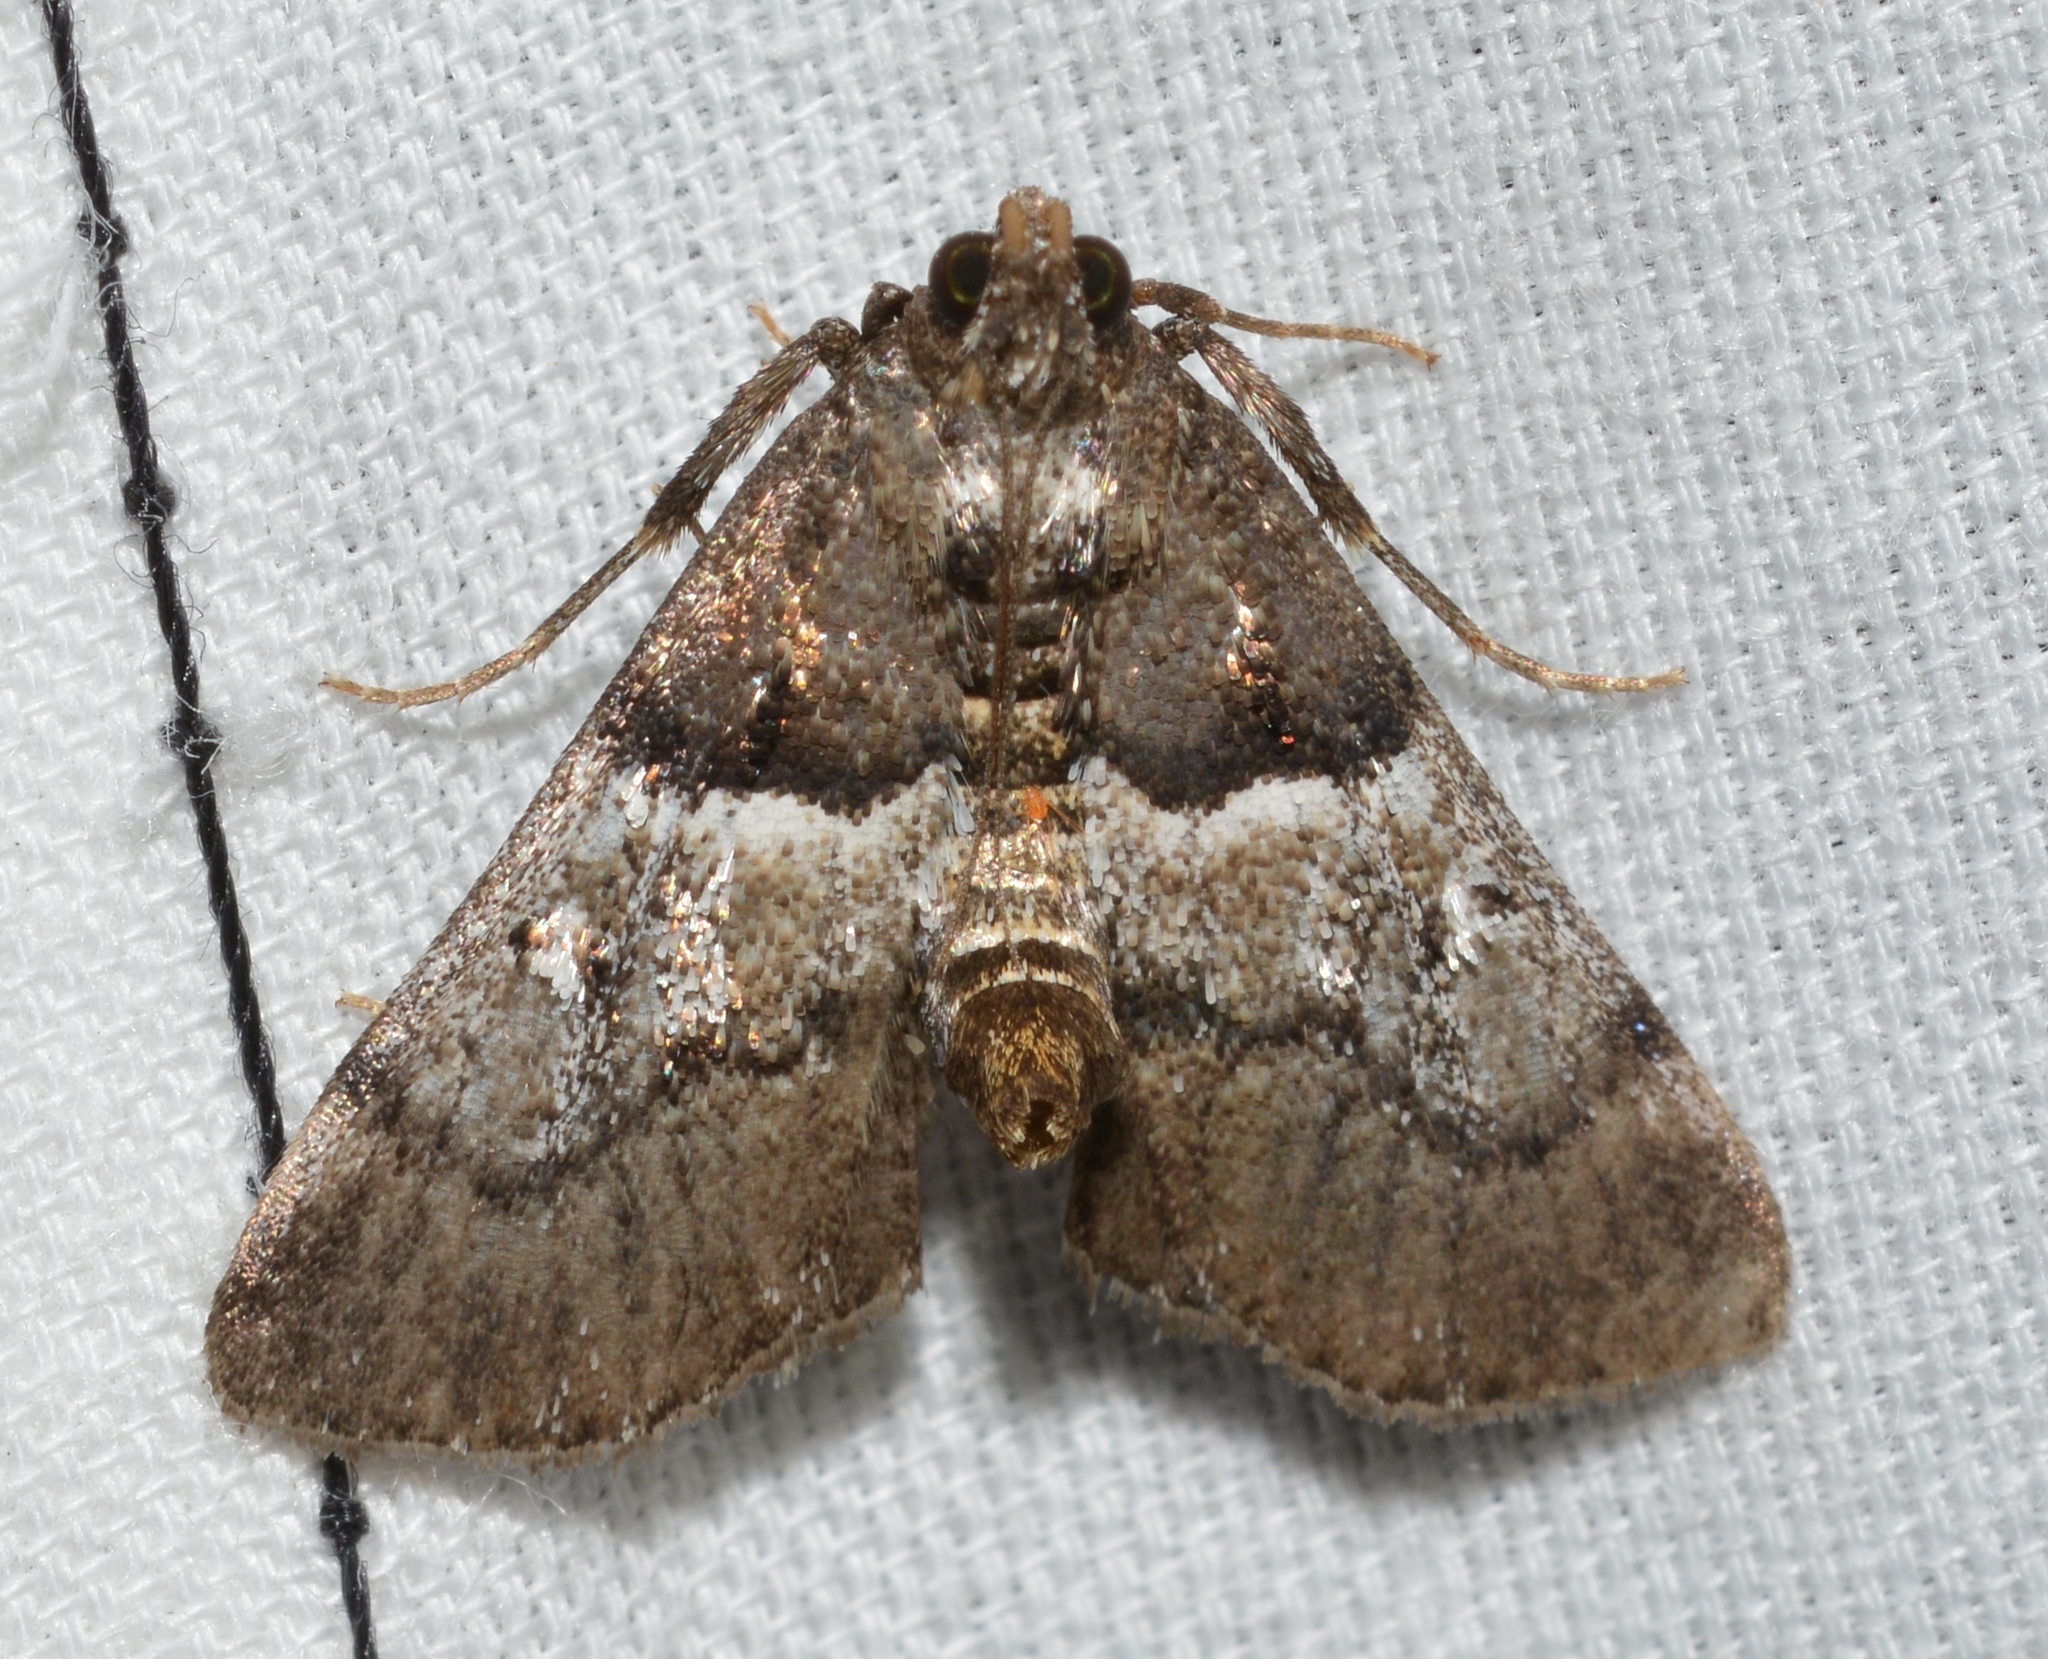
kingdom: Animalia
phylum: Arthropoda
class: Insecta
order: Lepidoptera
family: Pyralidae
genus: Macalla
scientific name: Macalla zelleri
